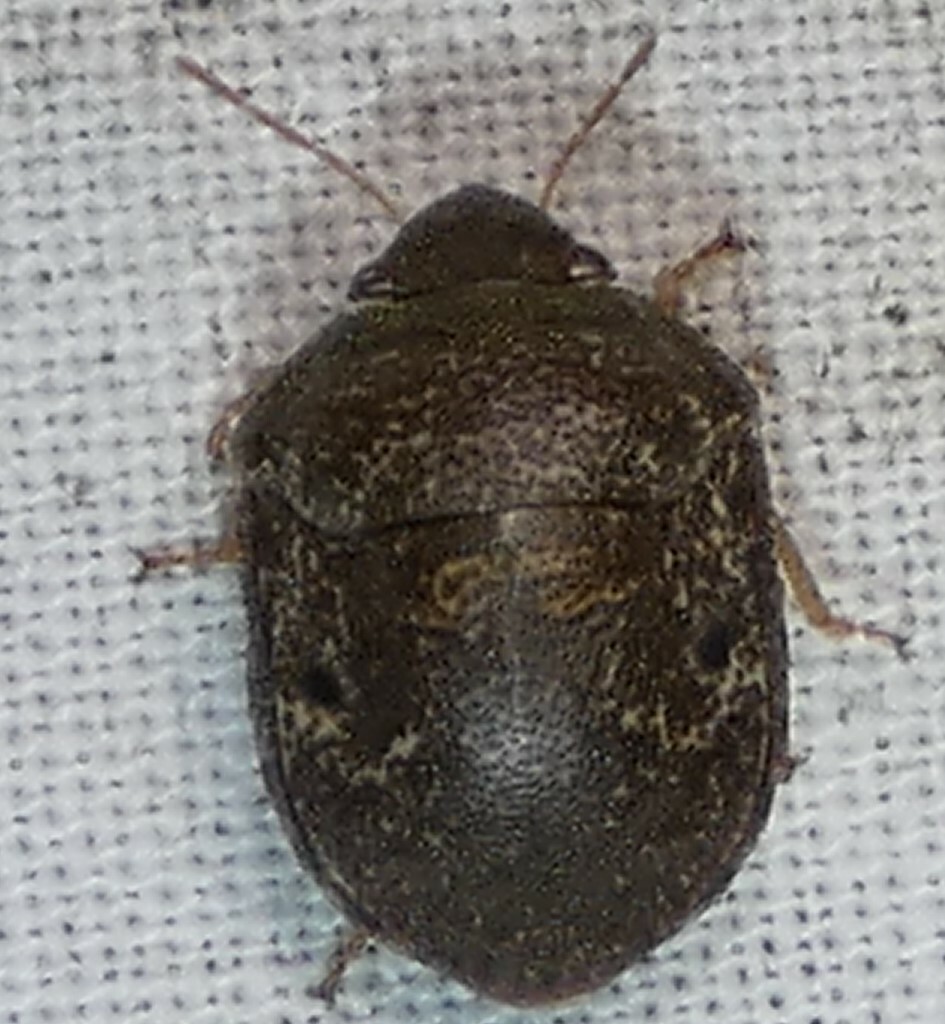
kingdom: Animalia
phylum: Arthropoda
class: Insecta
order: Hemiptera
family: Scutelleridae
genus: Diolcus
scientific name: Diolcus chrysorrhoeus
